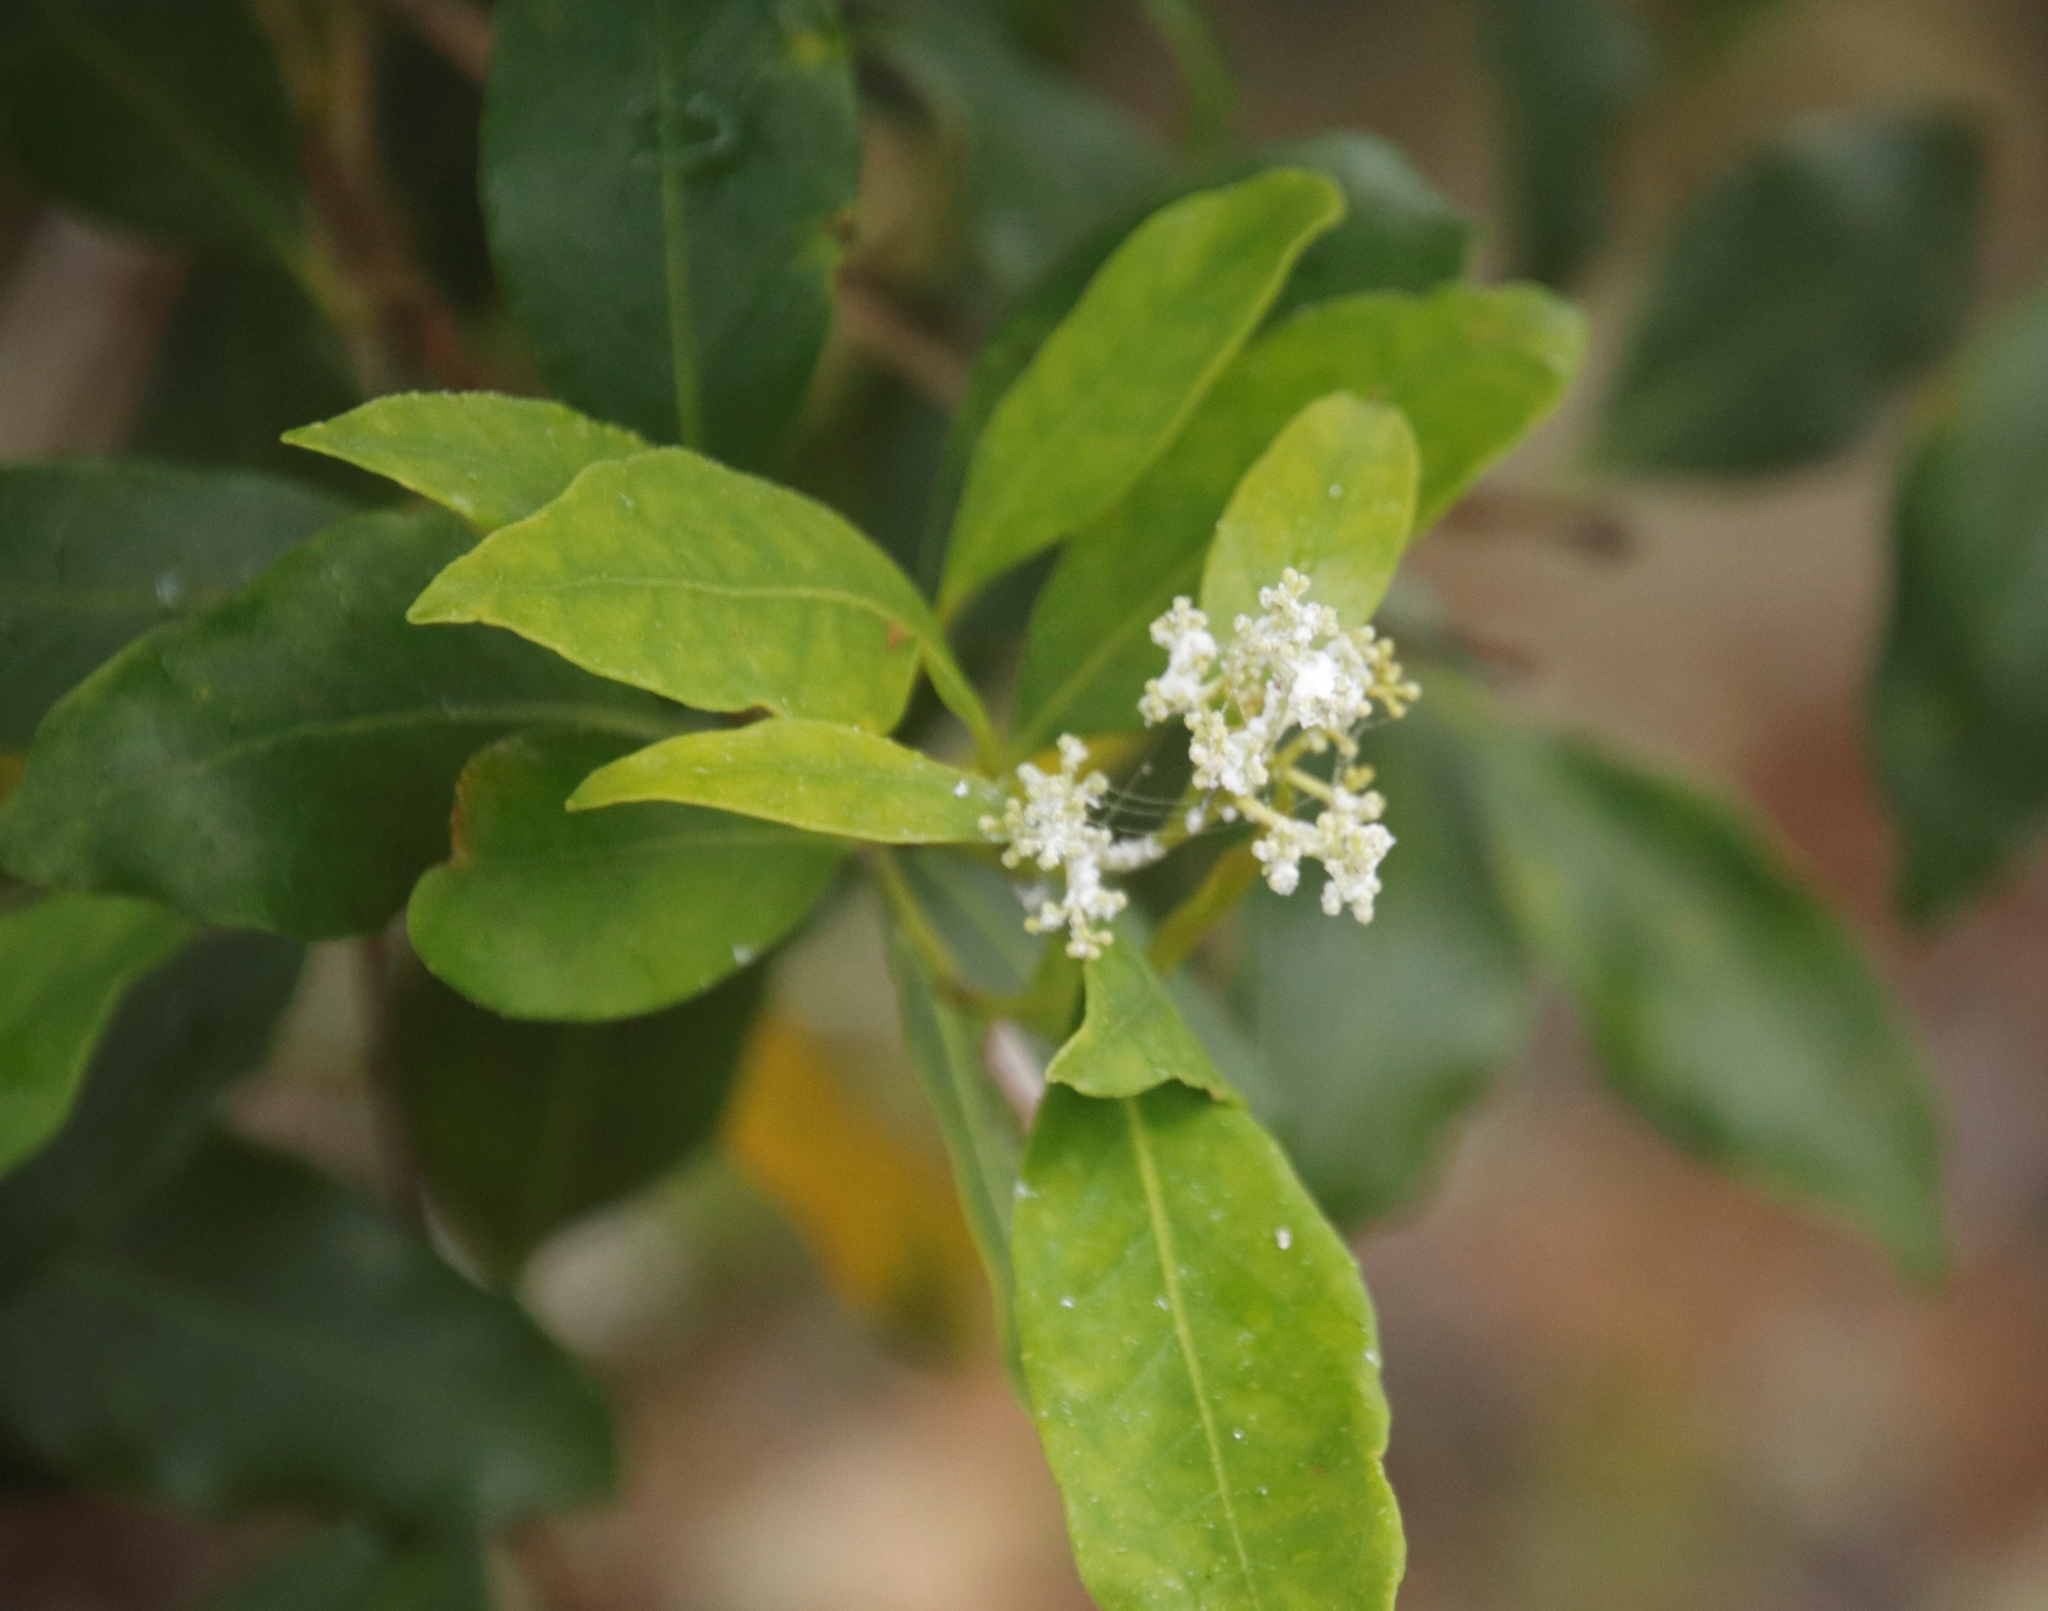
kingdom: Plantae
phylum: Tracheophyta
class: Magnoliopsida
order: Lamiales
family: Oleaceae
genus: Olea
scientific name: Olea capensis
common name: Black ironwood
